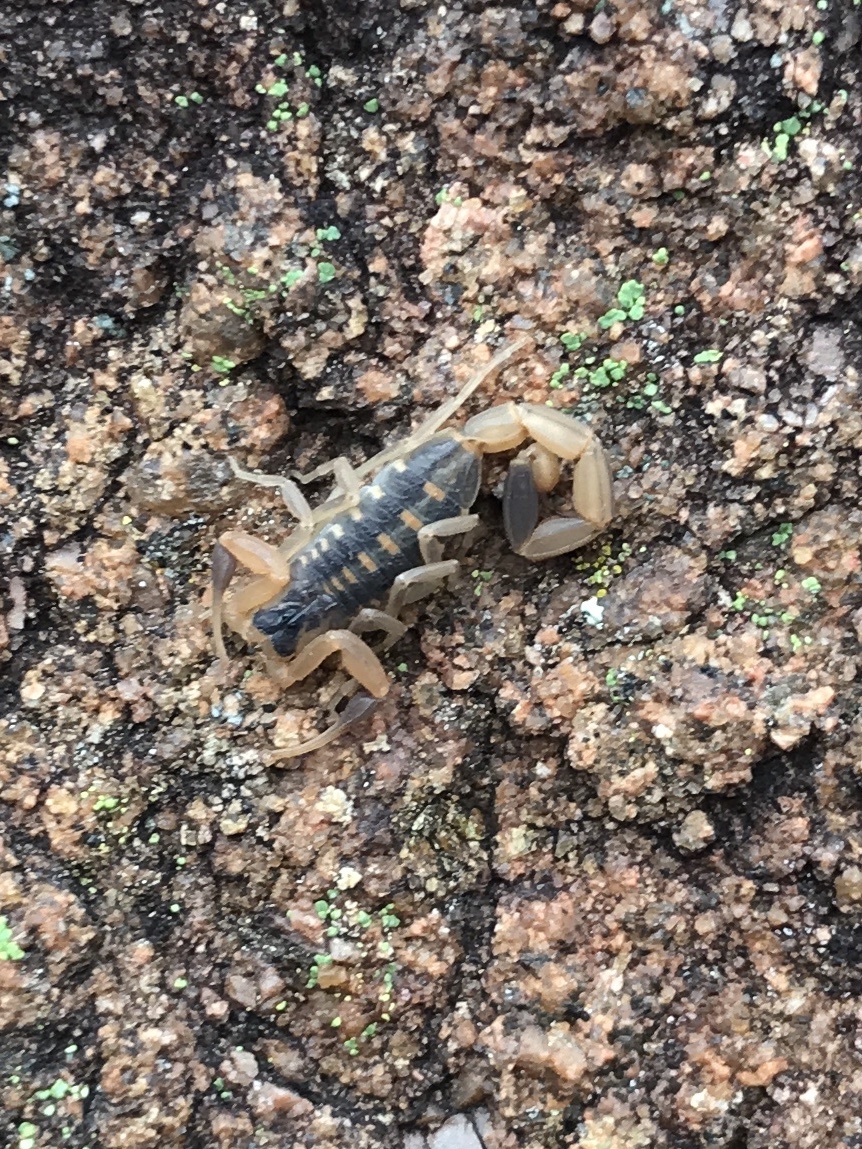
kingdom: Animalia
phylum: Arthropoda
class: Arachnida
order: Scorpiones
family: Buthidae
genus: Centruroides
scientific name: Centruroides vittatus
